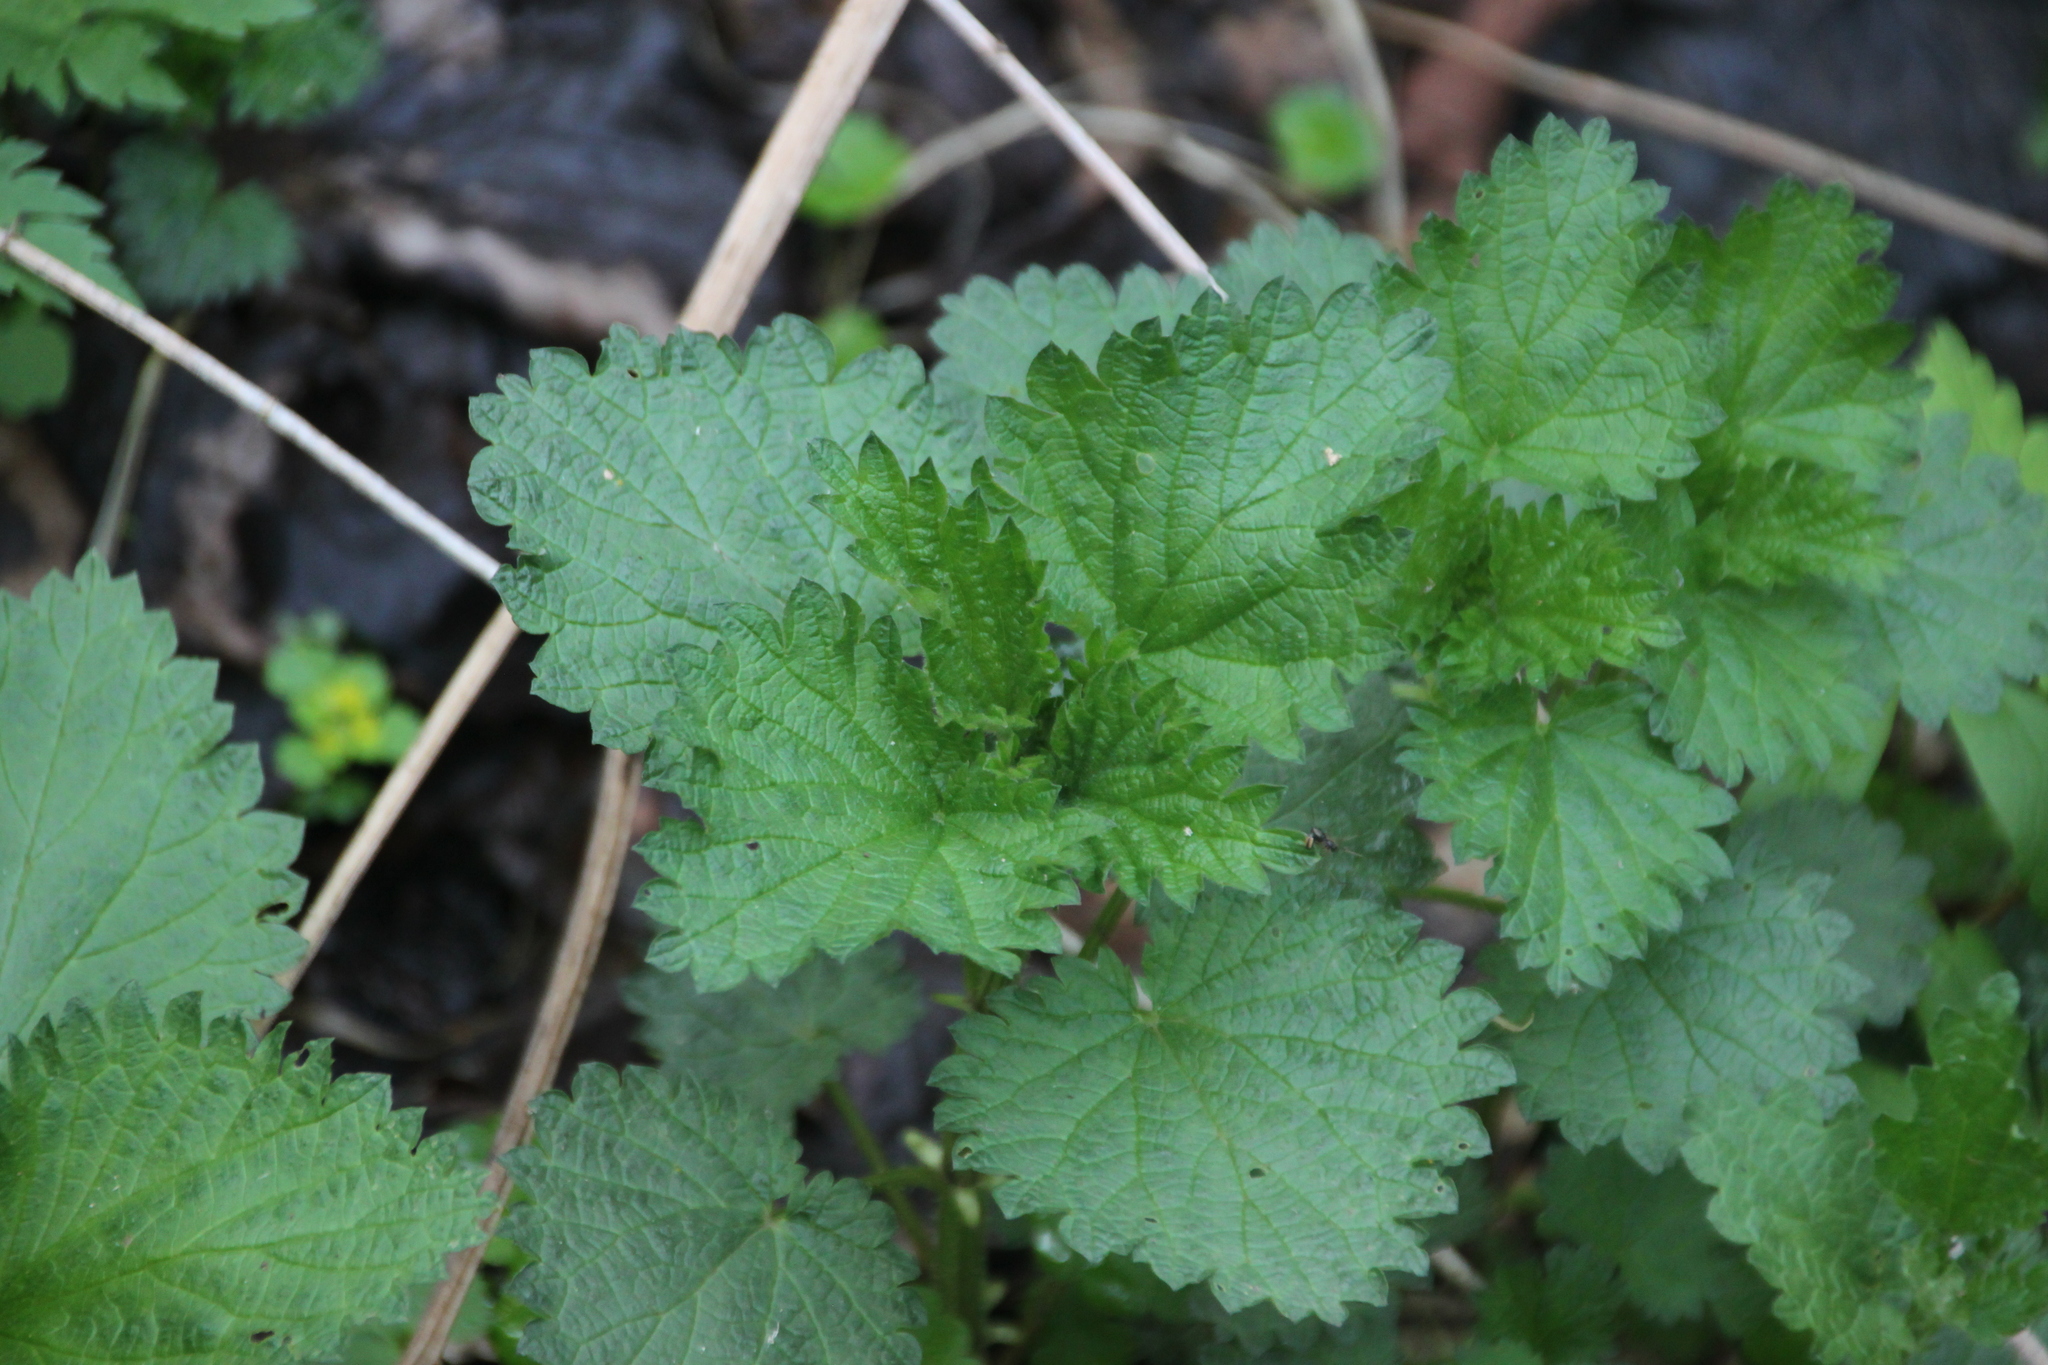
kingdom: Plantae
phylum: Tracheophyta
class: Magnoliopsida
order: Rosales
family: Urticaceae
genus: Urtica
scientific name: Urtica dioica
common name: Common nettle
